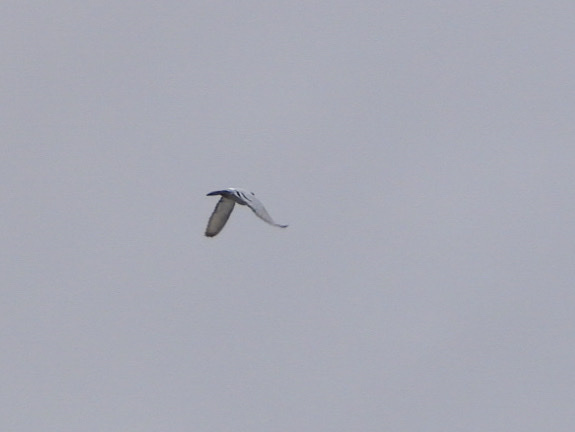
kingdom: Animalia
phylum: Chordata
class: Aves
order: Columbiformes
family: Columbidae
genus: Columba
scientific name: Columba livia
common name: Rock pigeon
